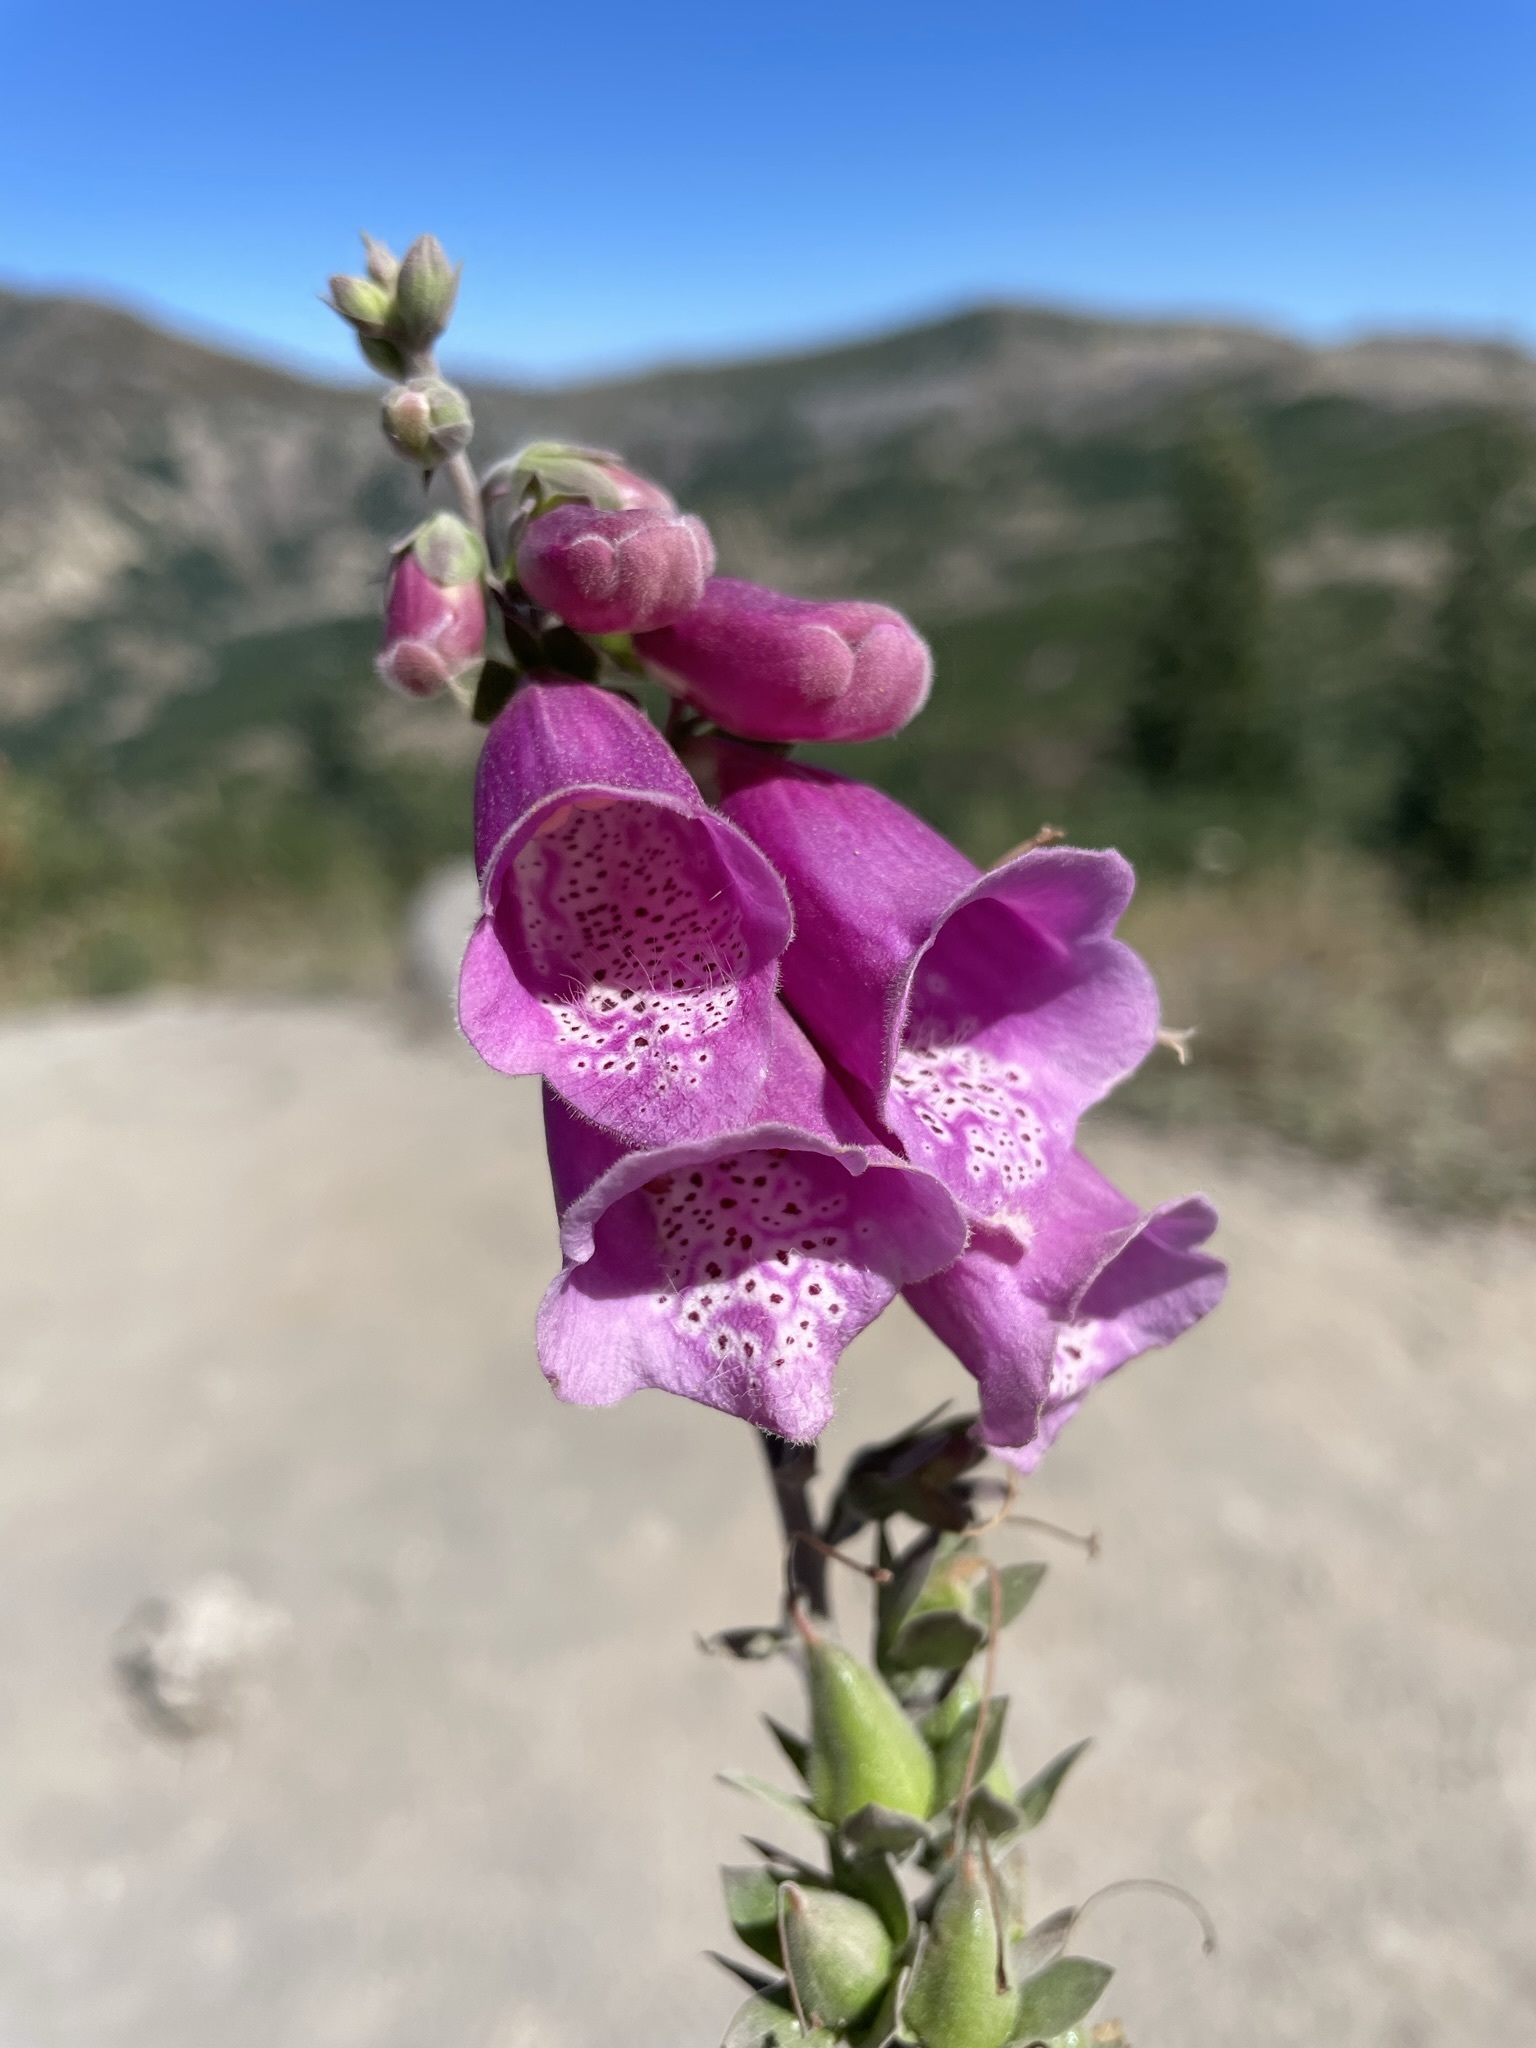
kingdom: Plantae
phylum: Tracheophyta
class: Magnoliopsida
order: Lamiales
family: Plantaginaceae
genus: Digitalis
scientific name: Digitalis purpurea
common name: Foxglove
